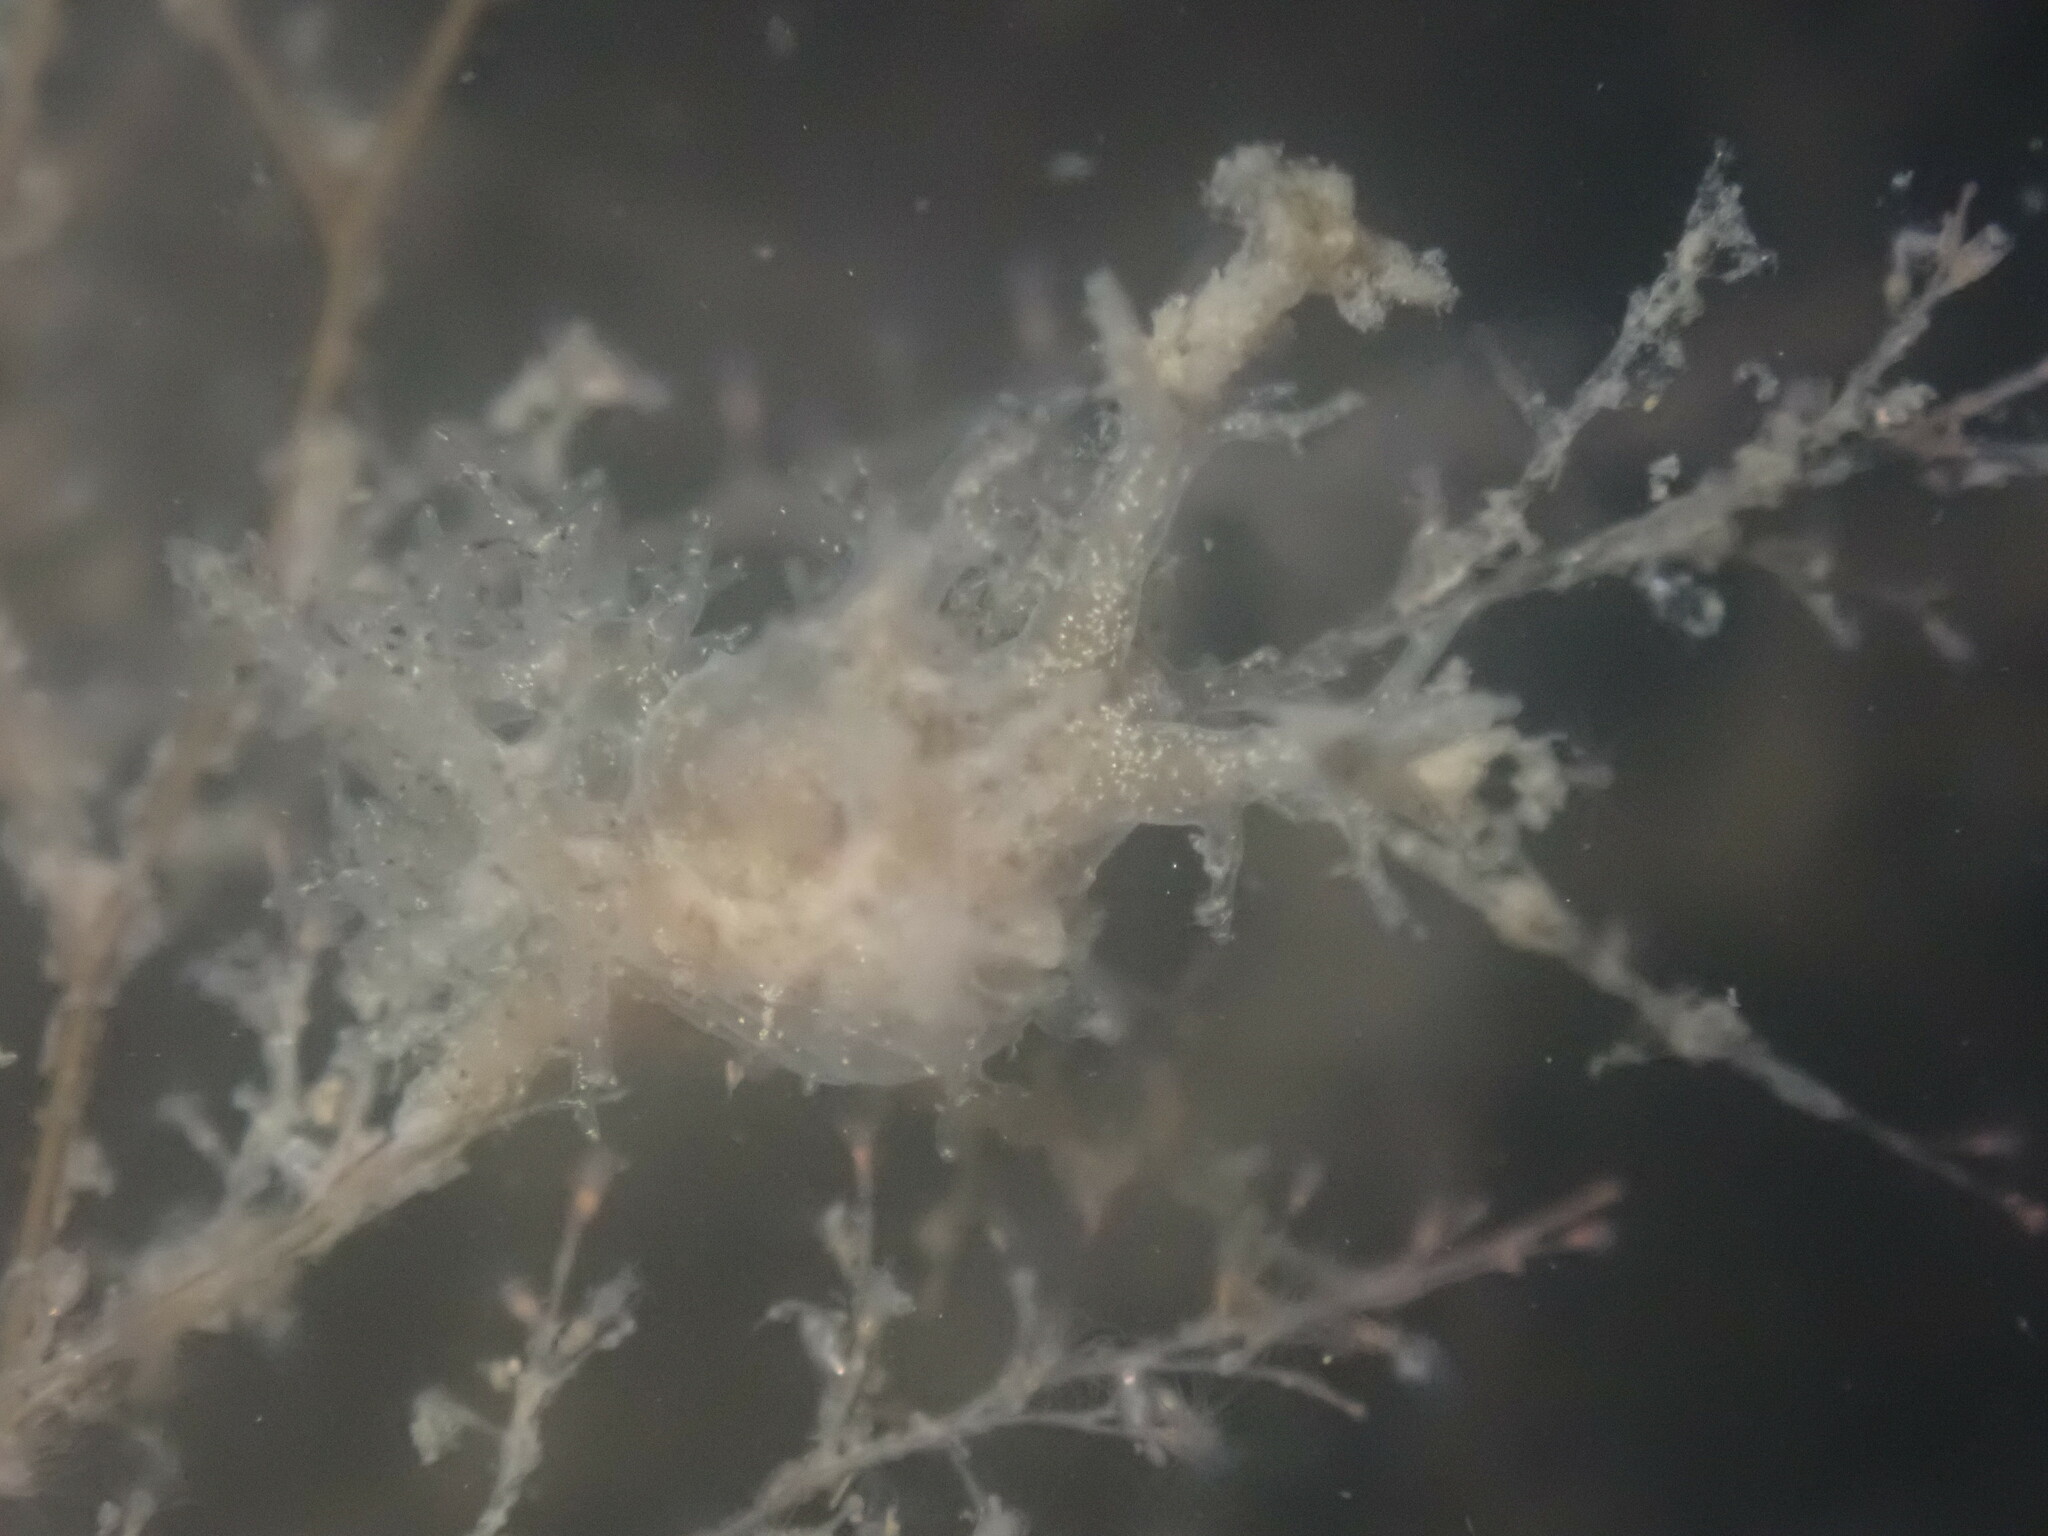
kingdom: Animalia
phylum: Mollusca
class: Gastropoda
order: Nudibranchia
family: Dendronotidae
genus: Dendronotus
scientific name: Dendronotus venustus
